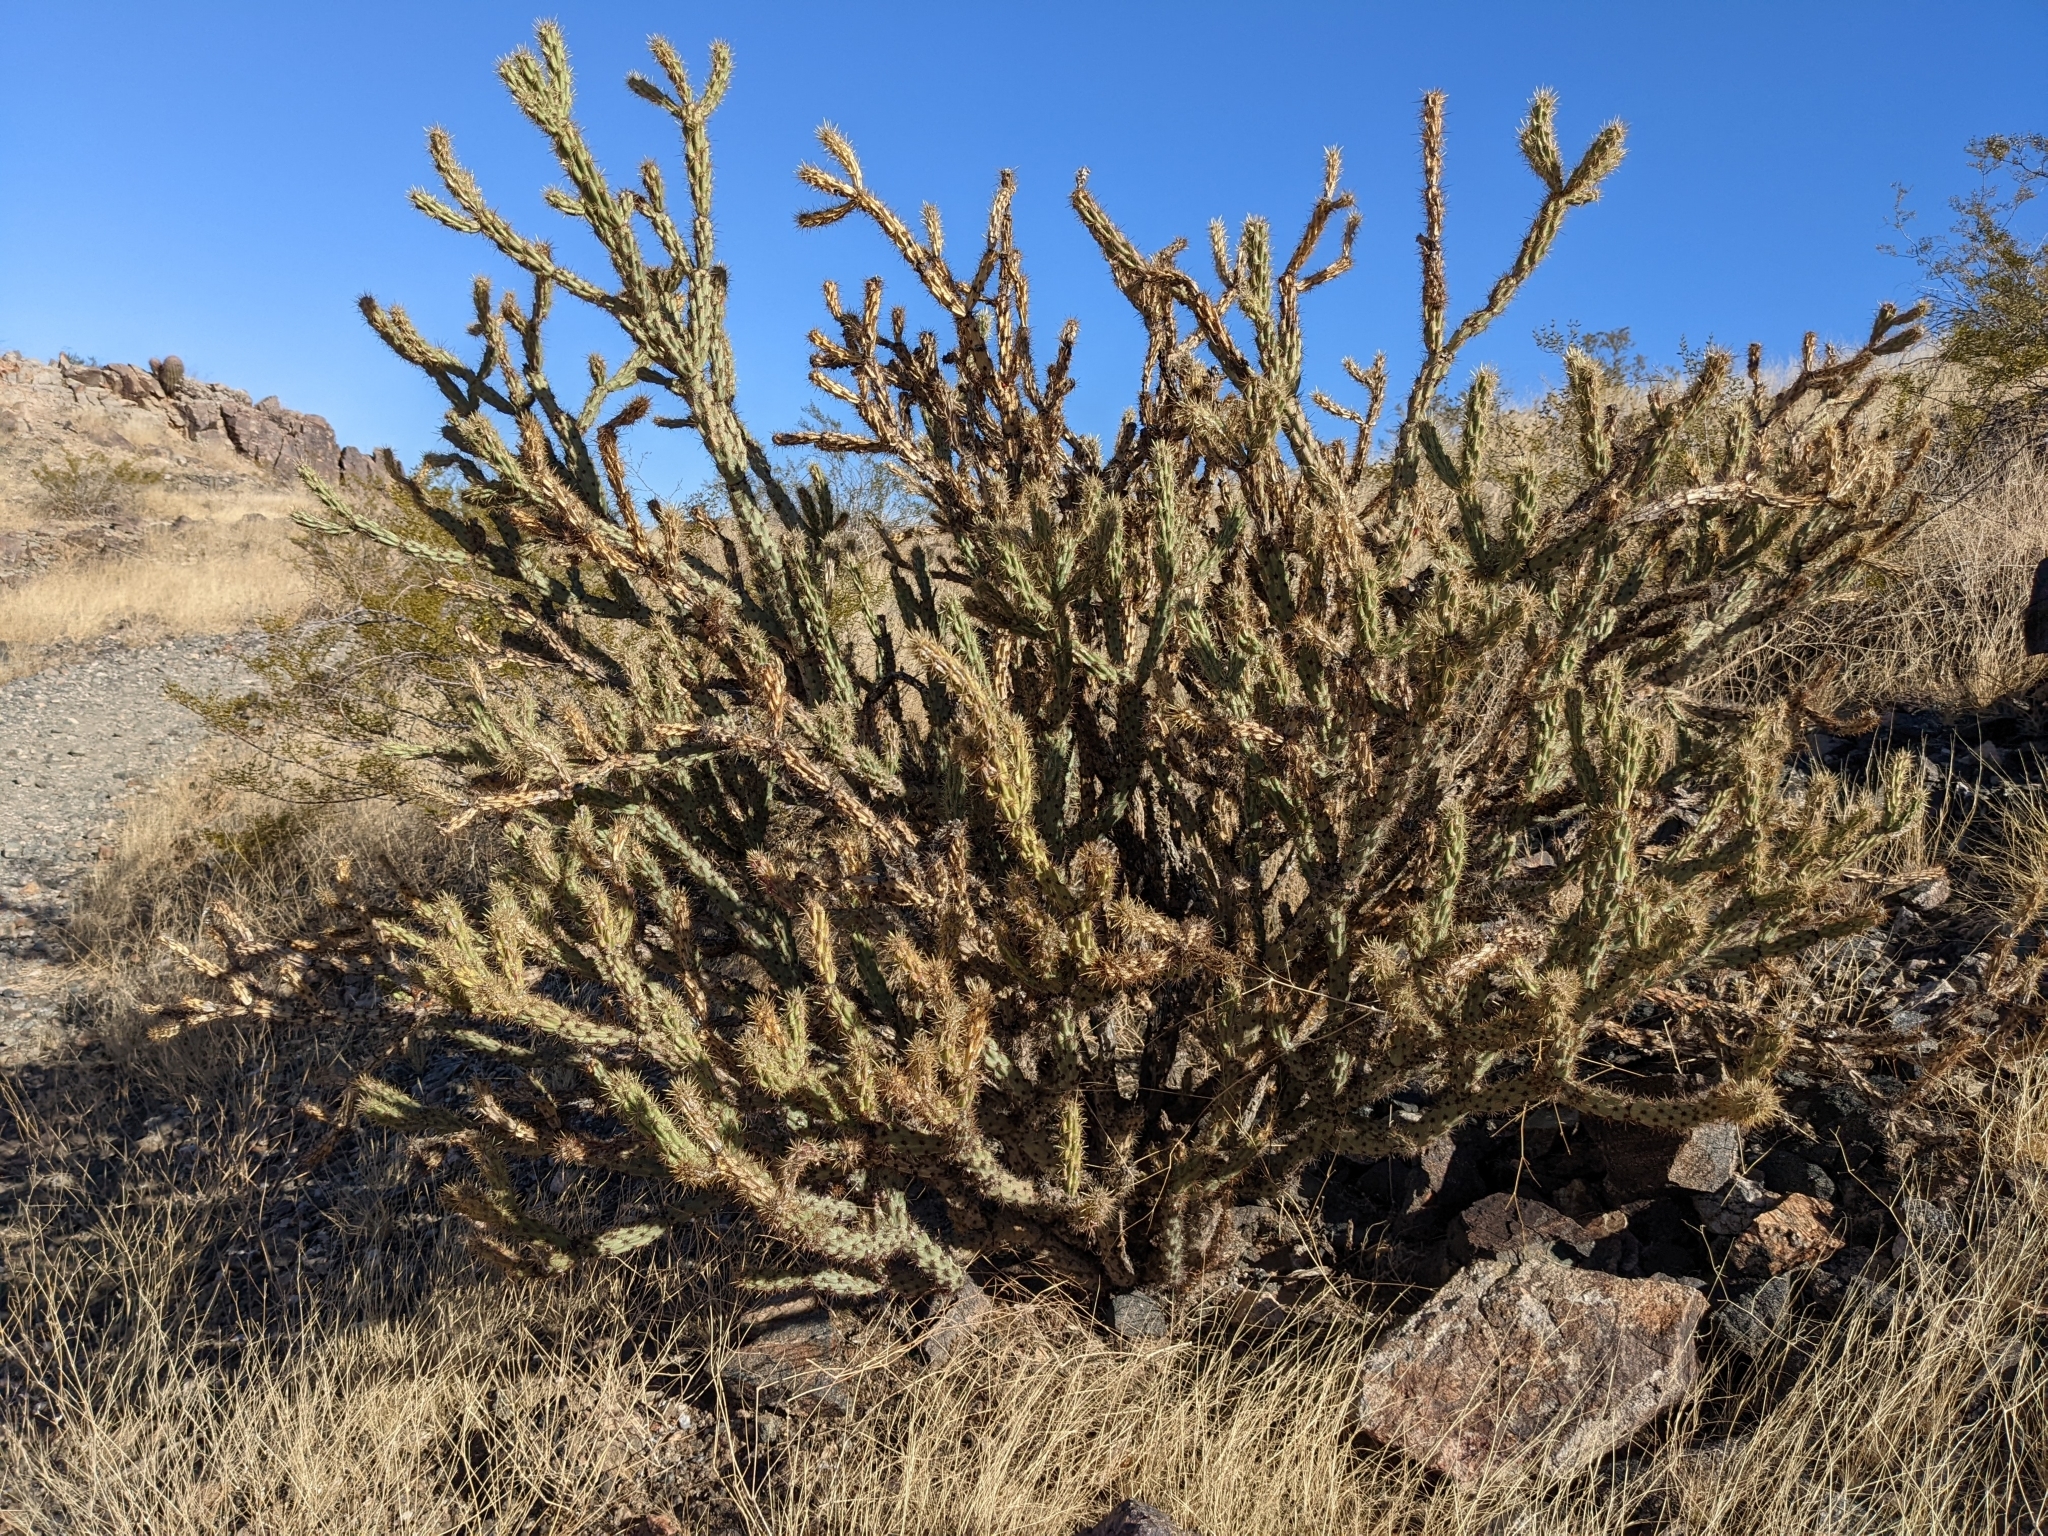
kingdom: Plantae
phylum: Tracheophyta
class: Magnoliopsida
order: Caryophyllales
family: Cactaceae
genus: Cylindropuntia
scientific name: Cylindropuntia acanthocarpa
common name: Buckhorn cholla
